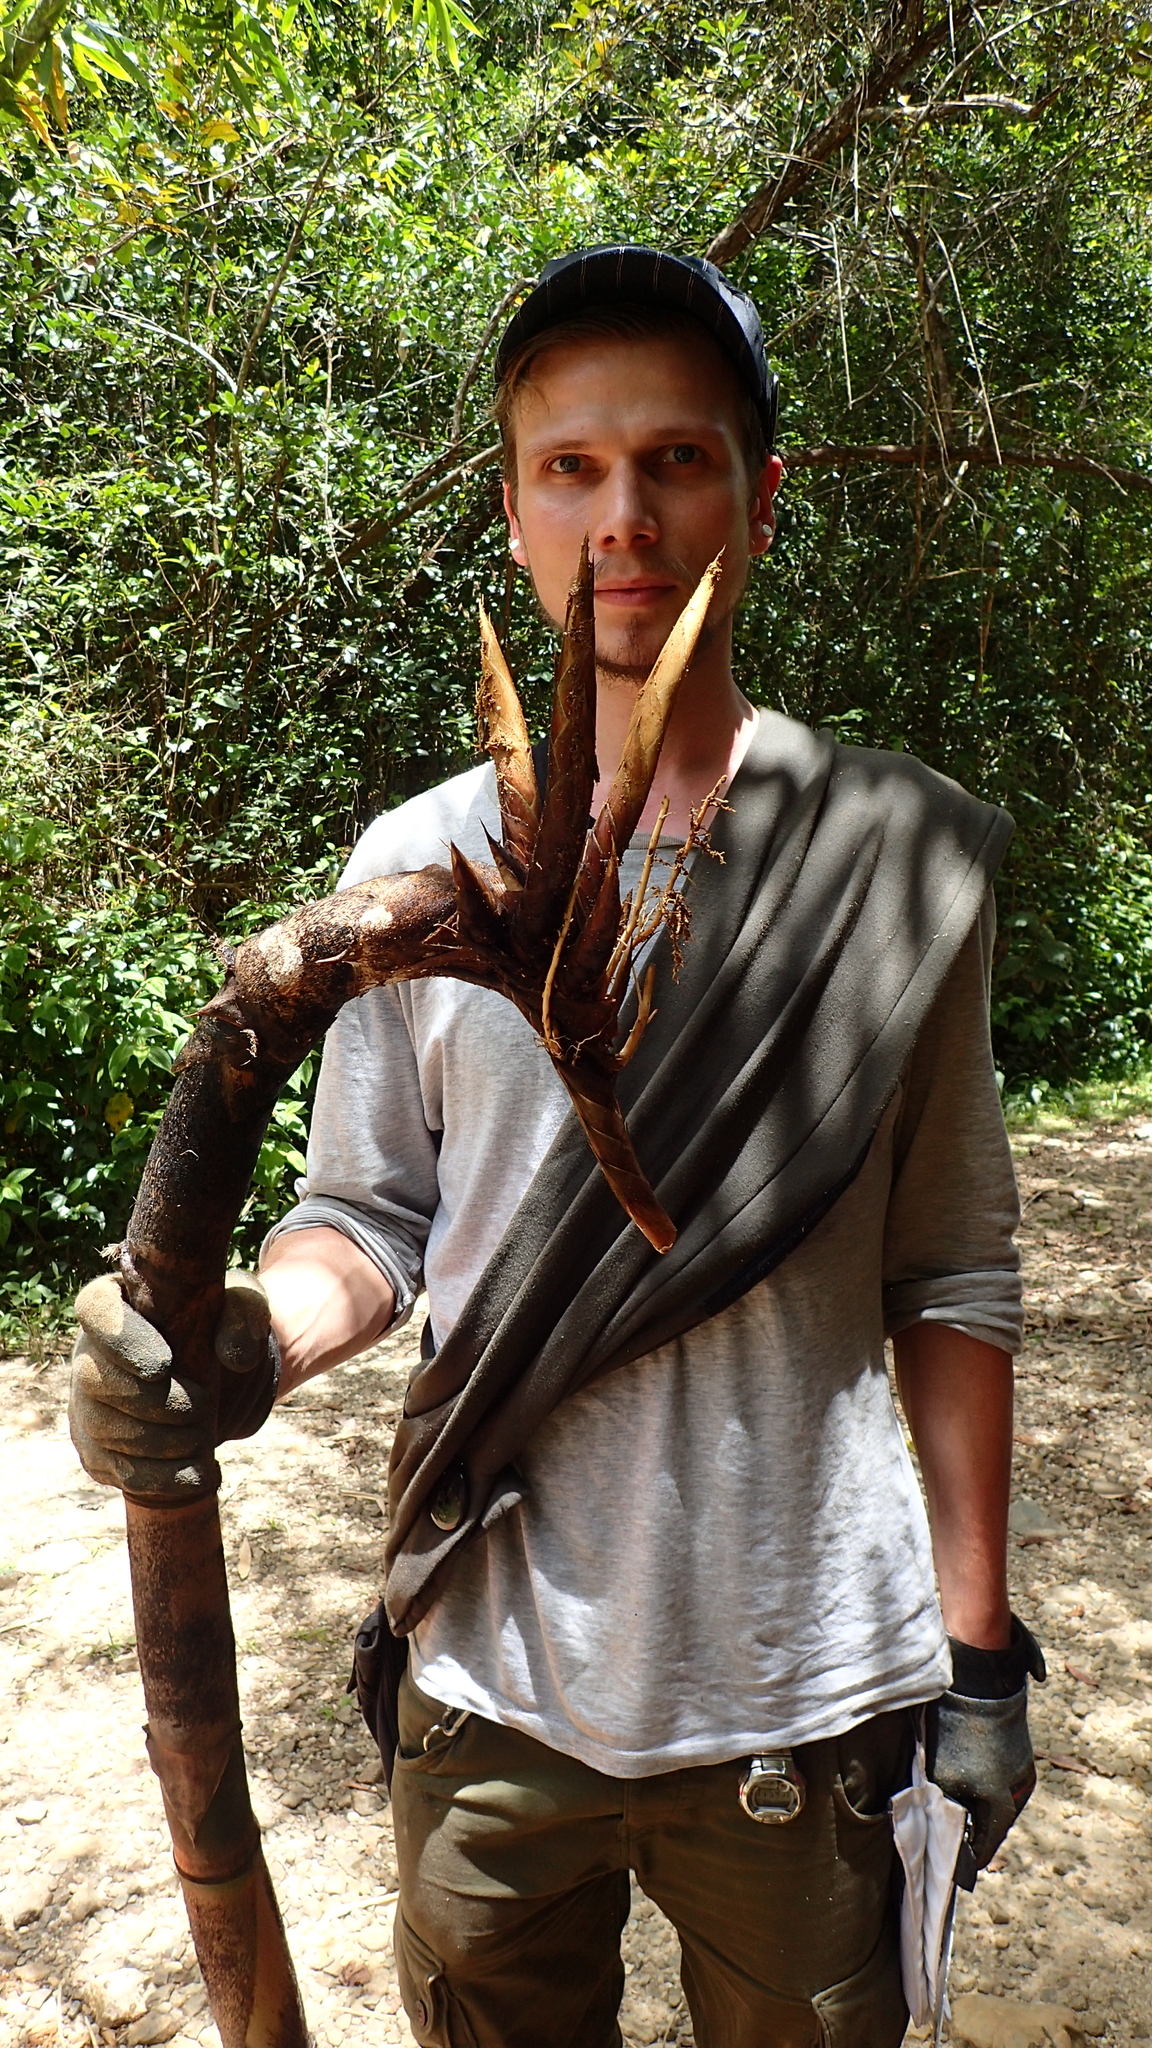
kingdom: Plantae
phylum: Tracheophyta
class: Liliopsida
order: Poales
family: Poaceae
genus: Cathariostachys
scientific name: Cathariostachys madagascariensis
